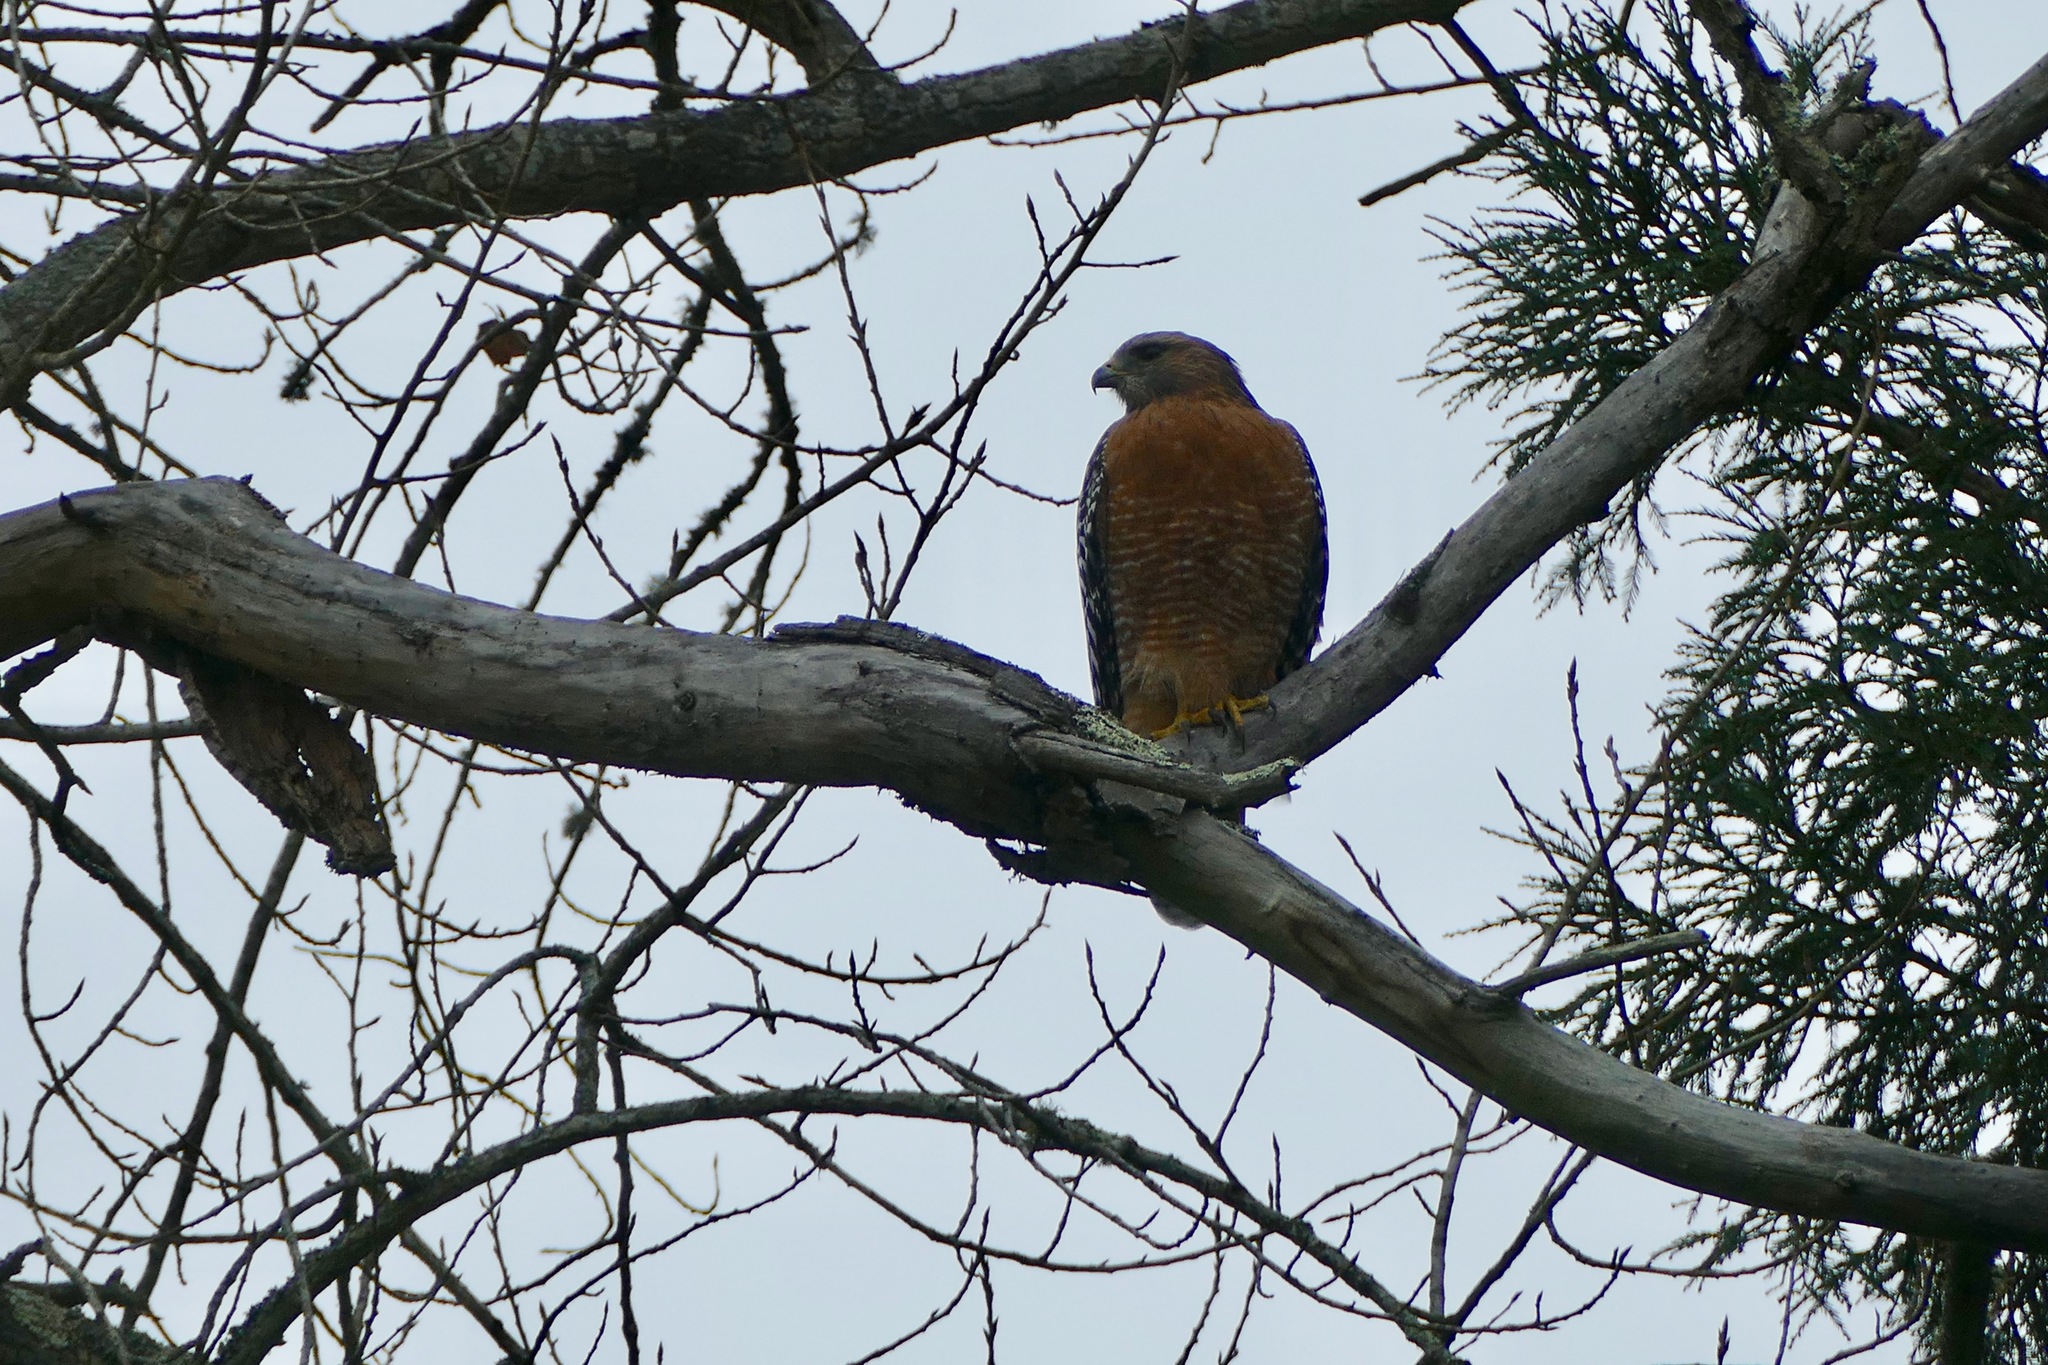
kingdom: Animalia
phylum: Chordata
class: Aves
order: Accipitriformes
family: Accipitridae
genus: Buteo
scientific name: Buteo lineatus
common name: Red-shouldered hawk
